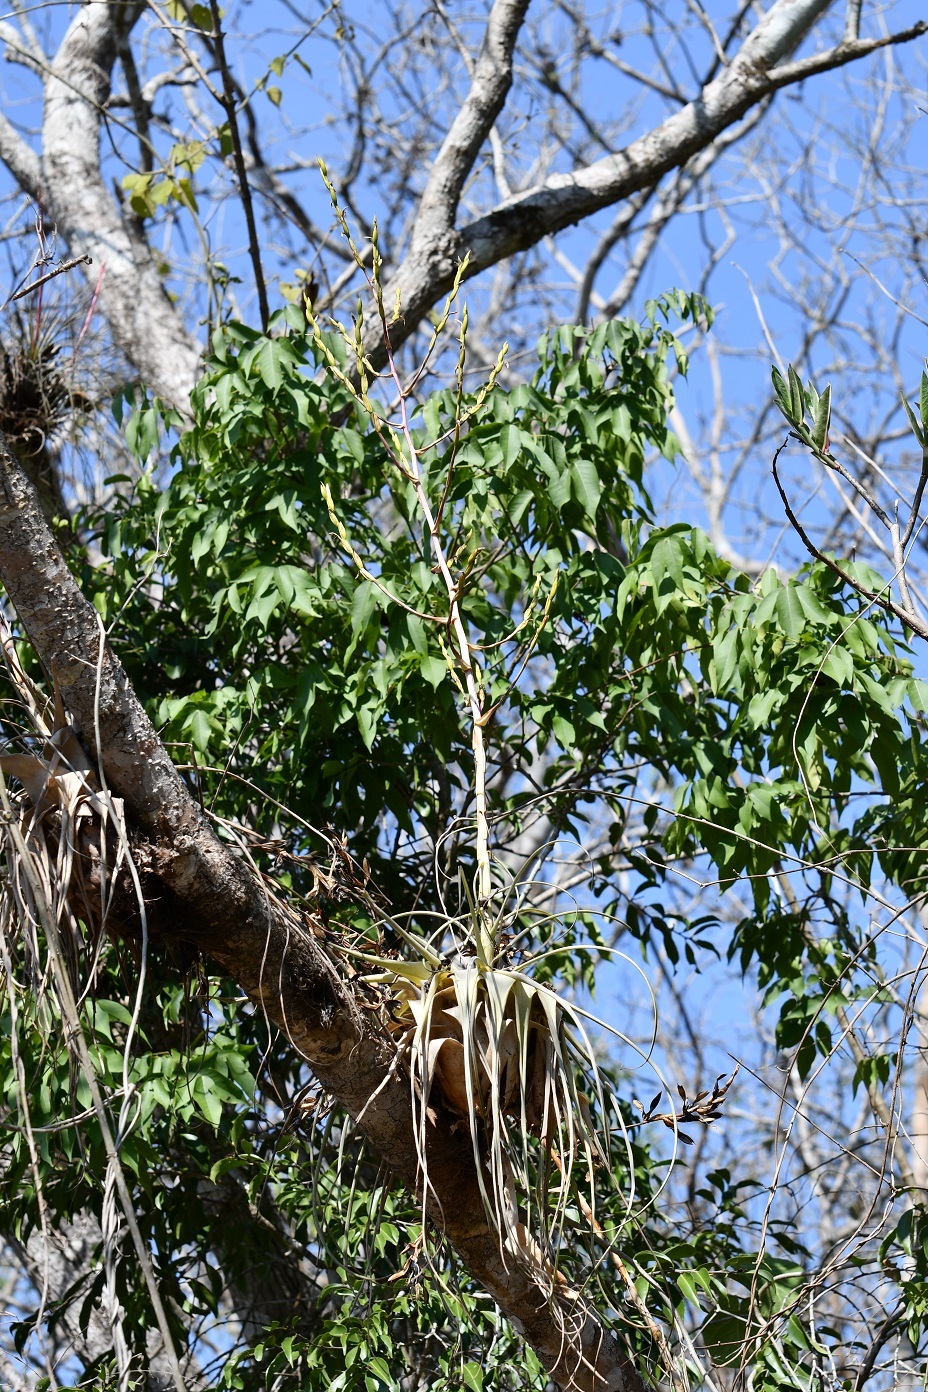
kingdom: Plantae
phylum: Tracheophyta
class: Liliopsida
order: Poales
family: Bromeliaceae
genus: Tillandsia
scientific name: Tillandsia elusiva
